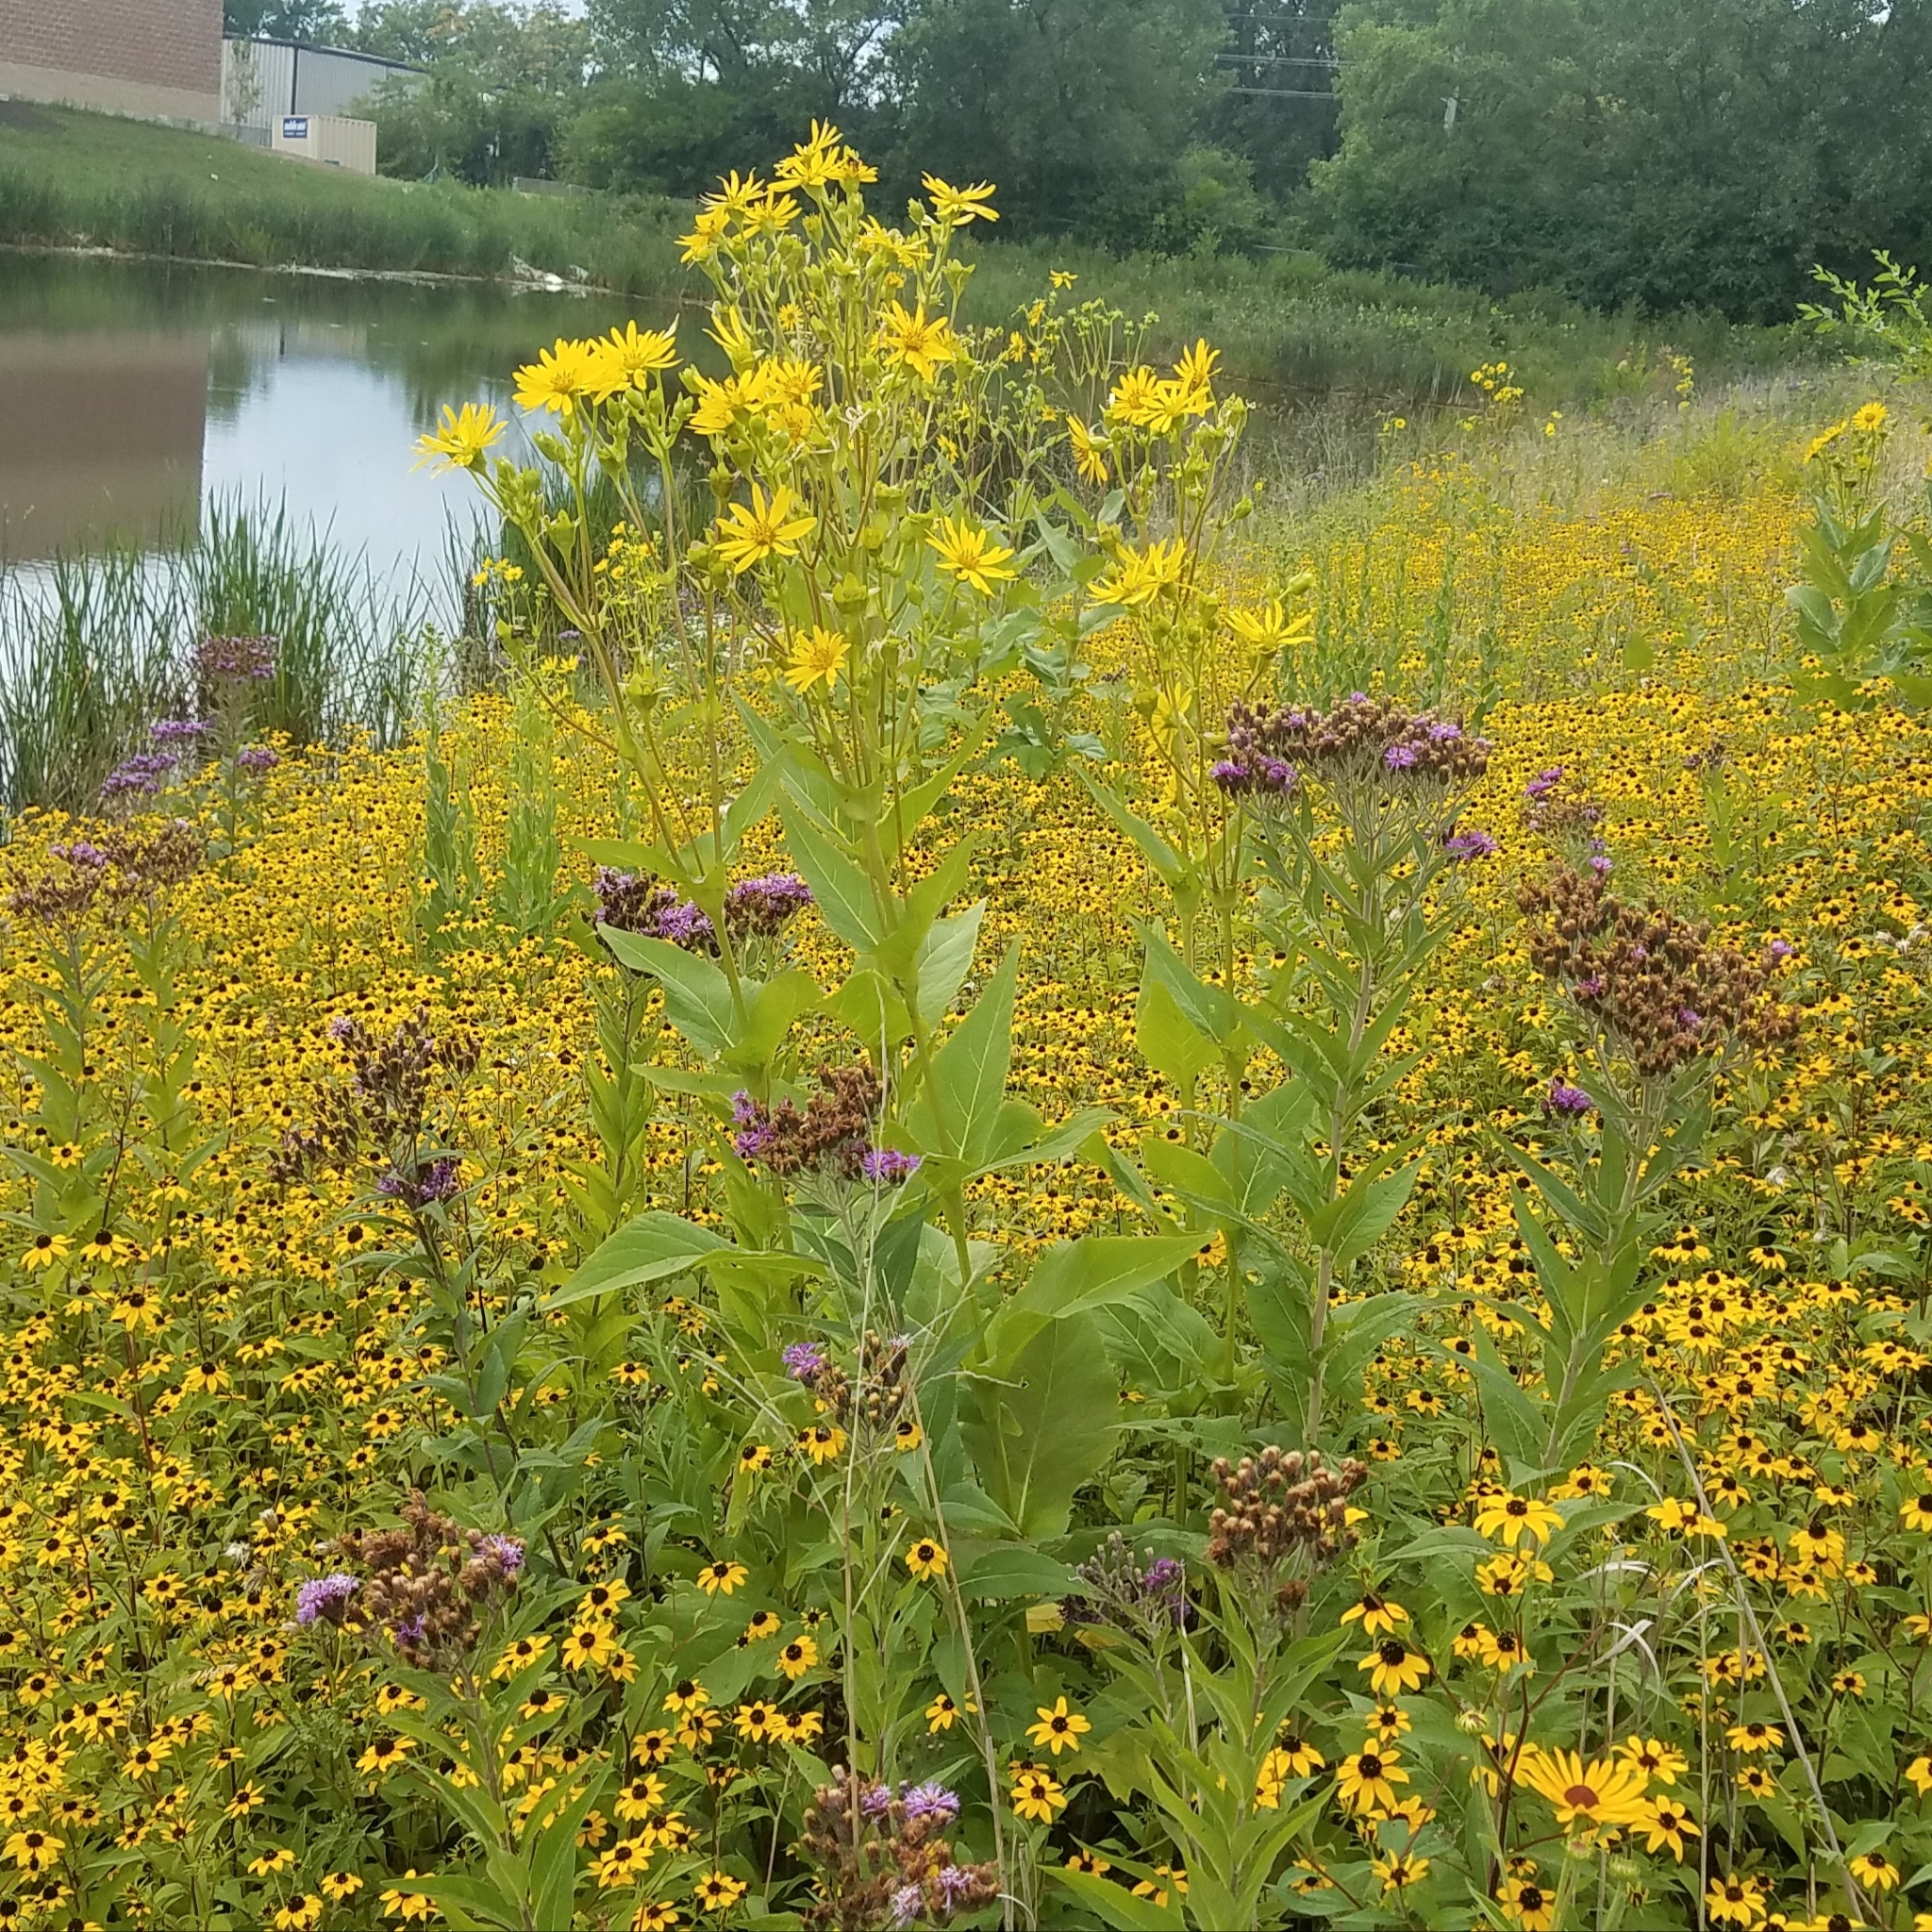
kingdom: Plantae
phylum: Tracheophyta
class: Magnoliopsida
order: Asterales
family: Asteraceae
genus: Silphium
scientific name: Silphium perfoliatum
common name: Cup-plant
